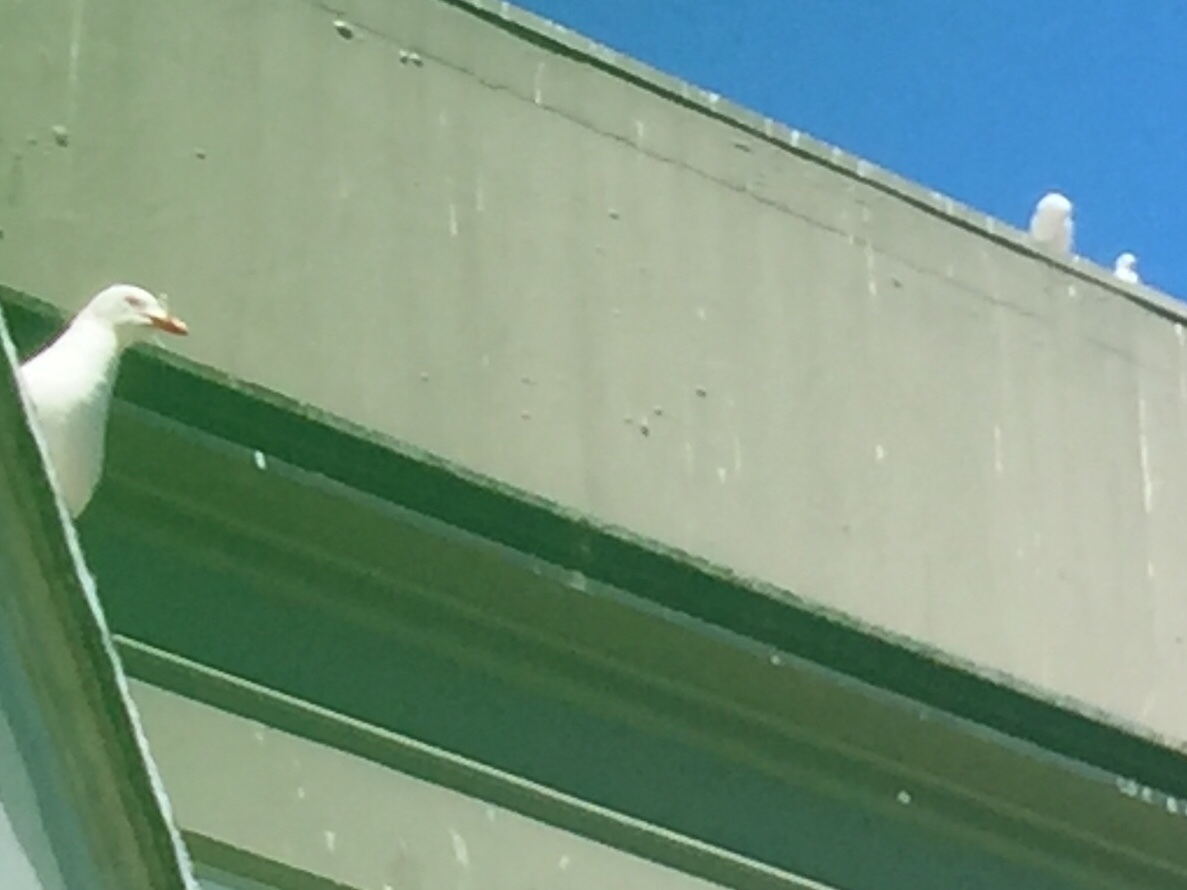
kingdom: Animalia
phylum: Chordata
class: Aves
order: Charadriiformes
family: Laridae
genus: Chroicocephalus
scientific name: Chroicocephalus novaehollandiae
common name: Silver gull
